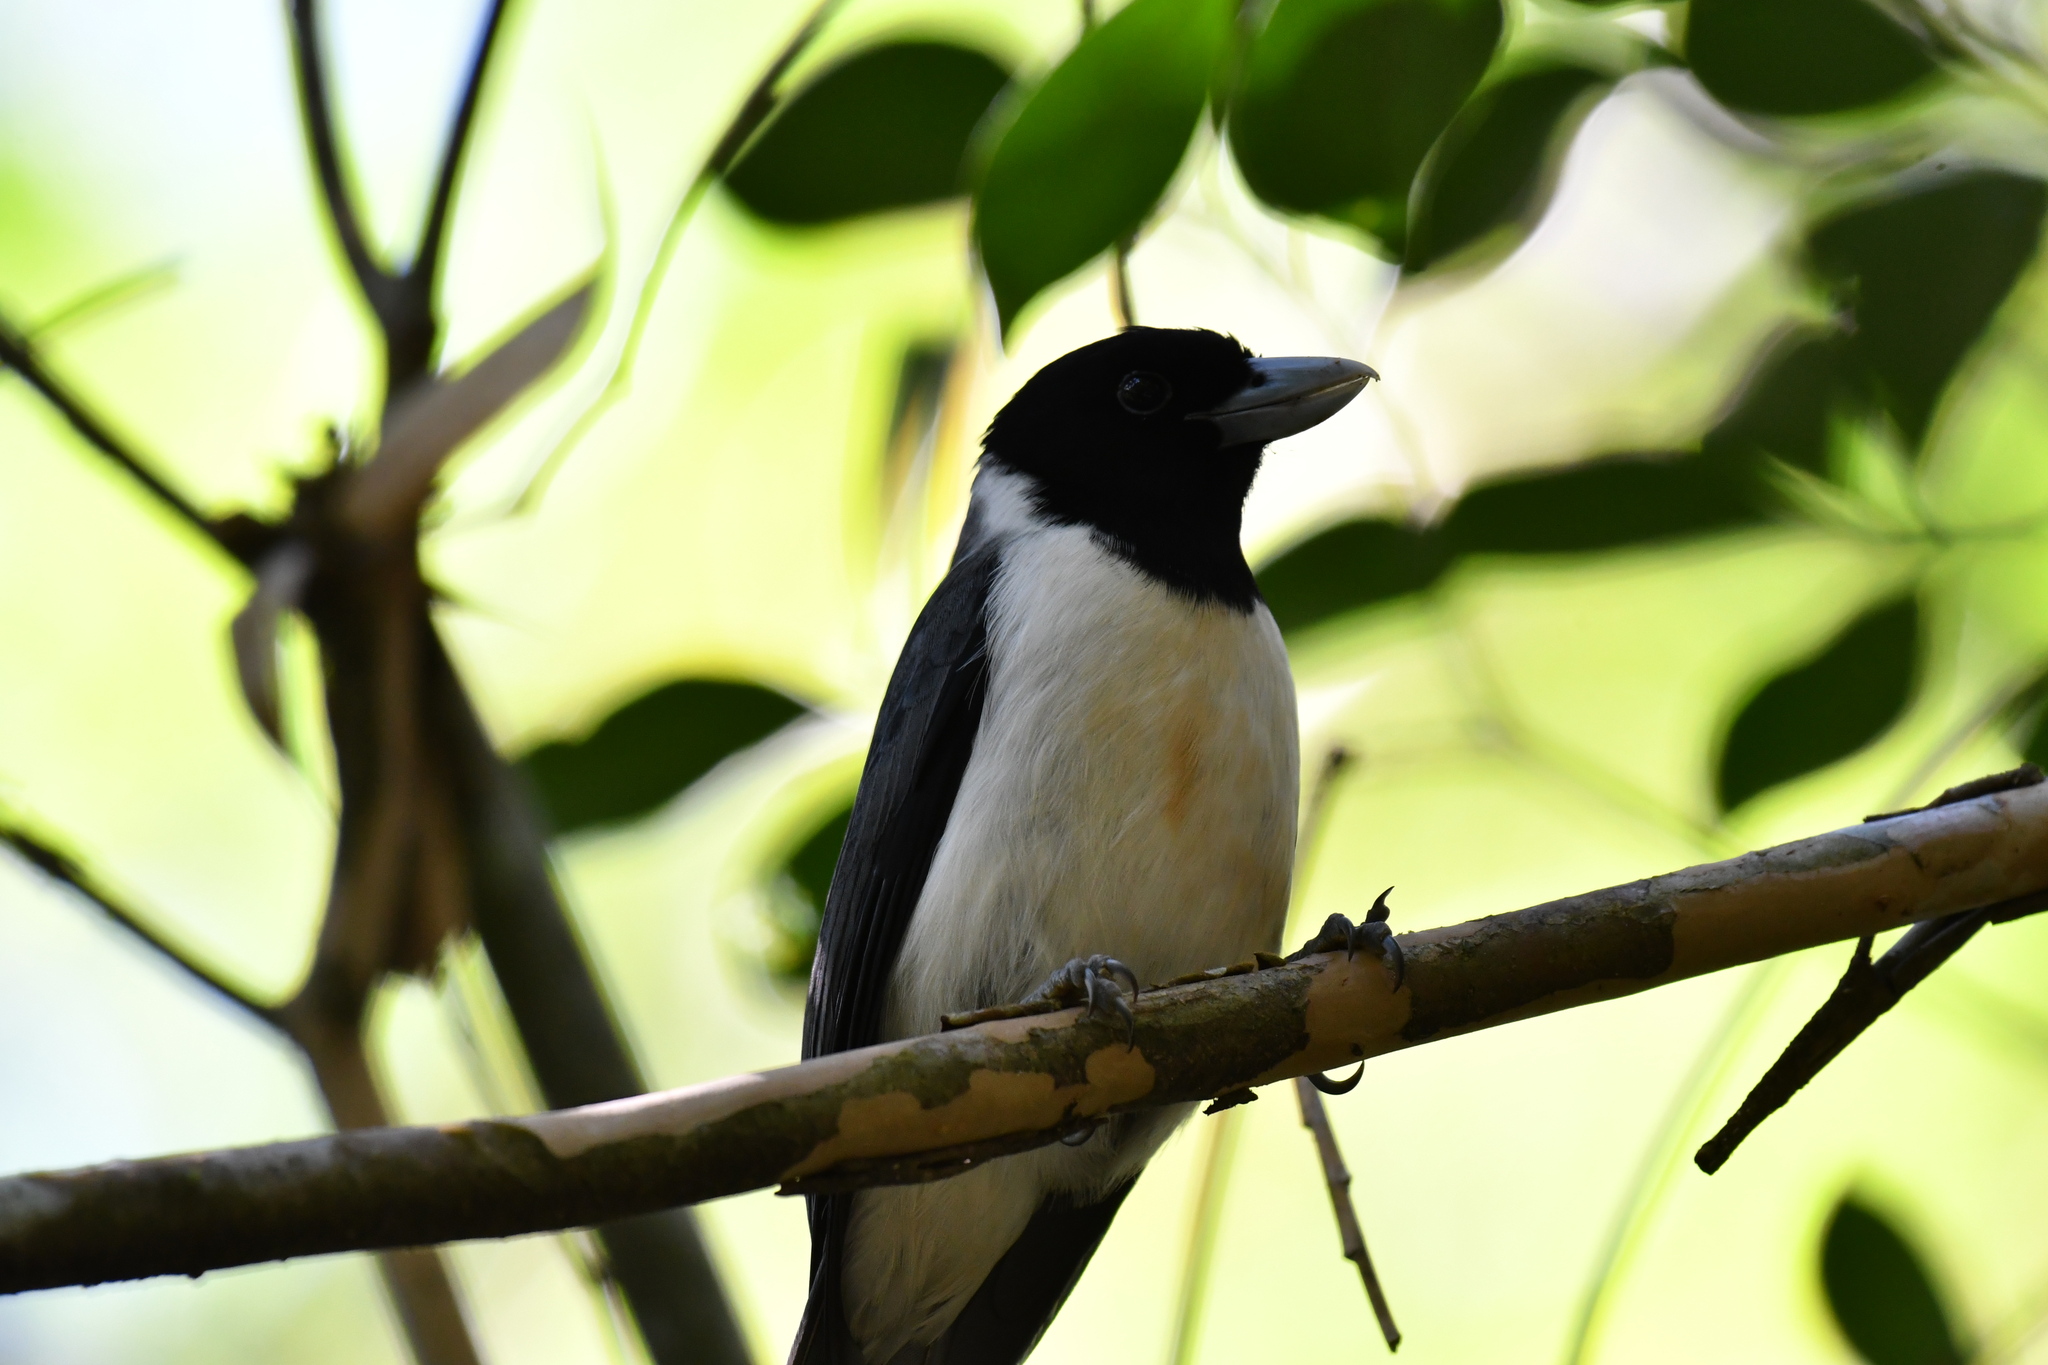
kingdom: Animalia
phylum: Chordata
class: Aves
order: Passeriformes
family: Vangidae
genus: Xenopirostris
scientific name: Xenopirostris polleni
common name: Pollen's vanga
